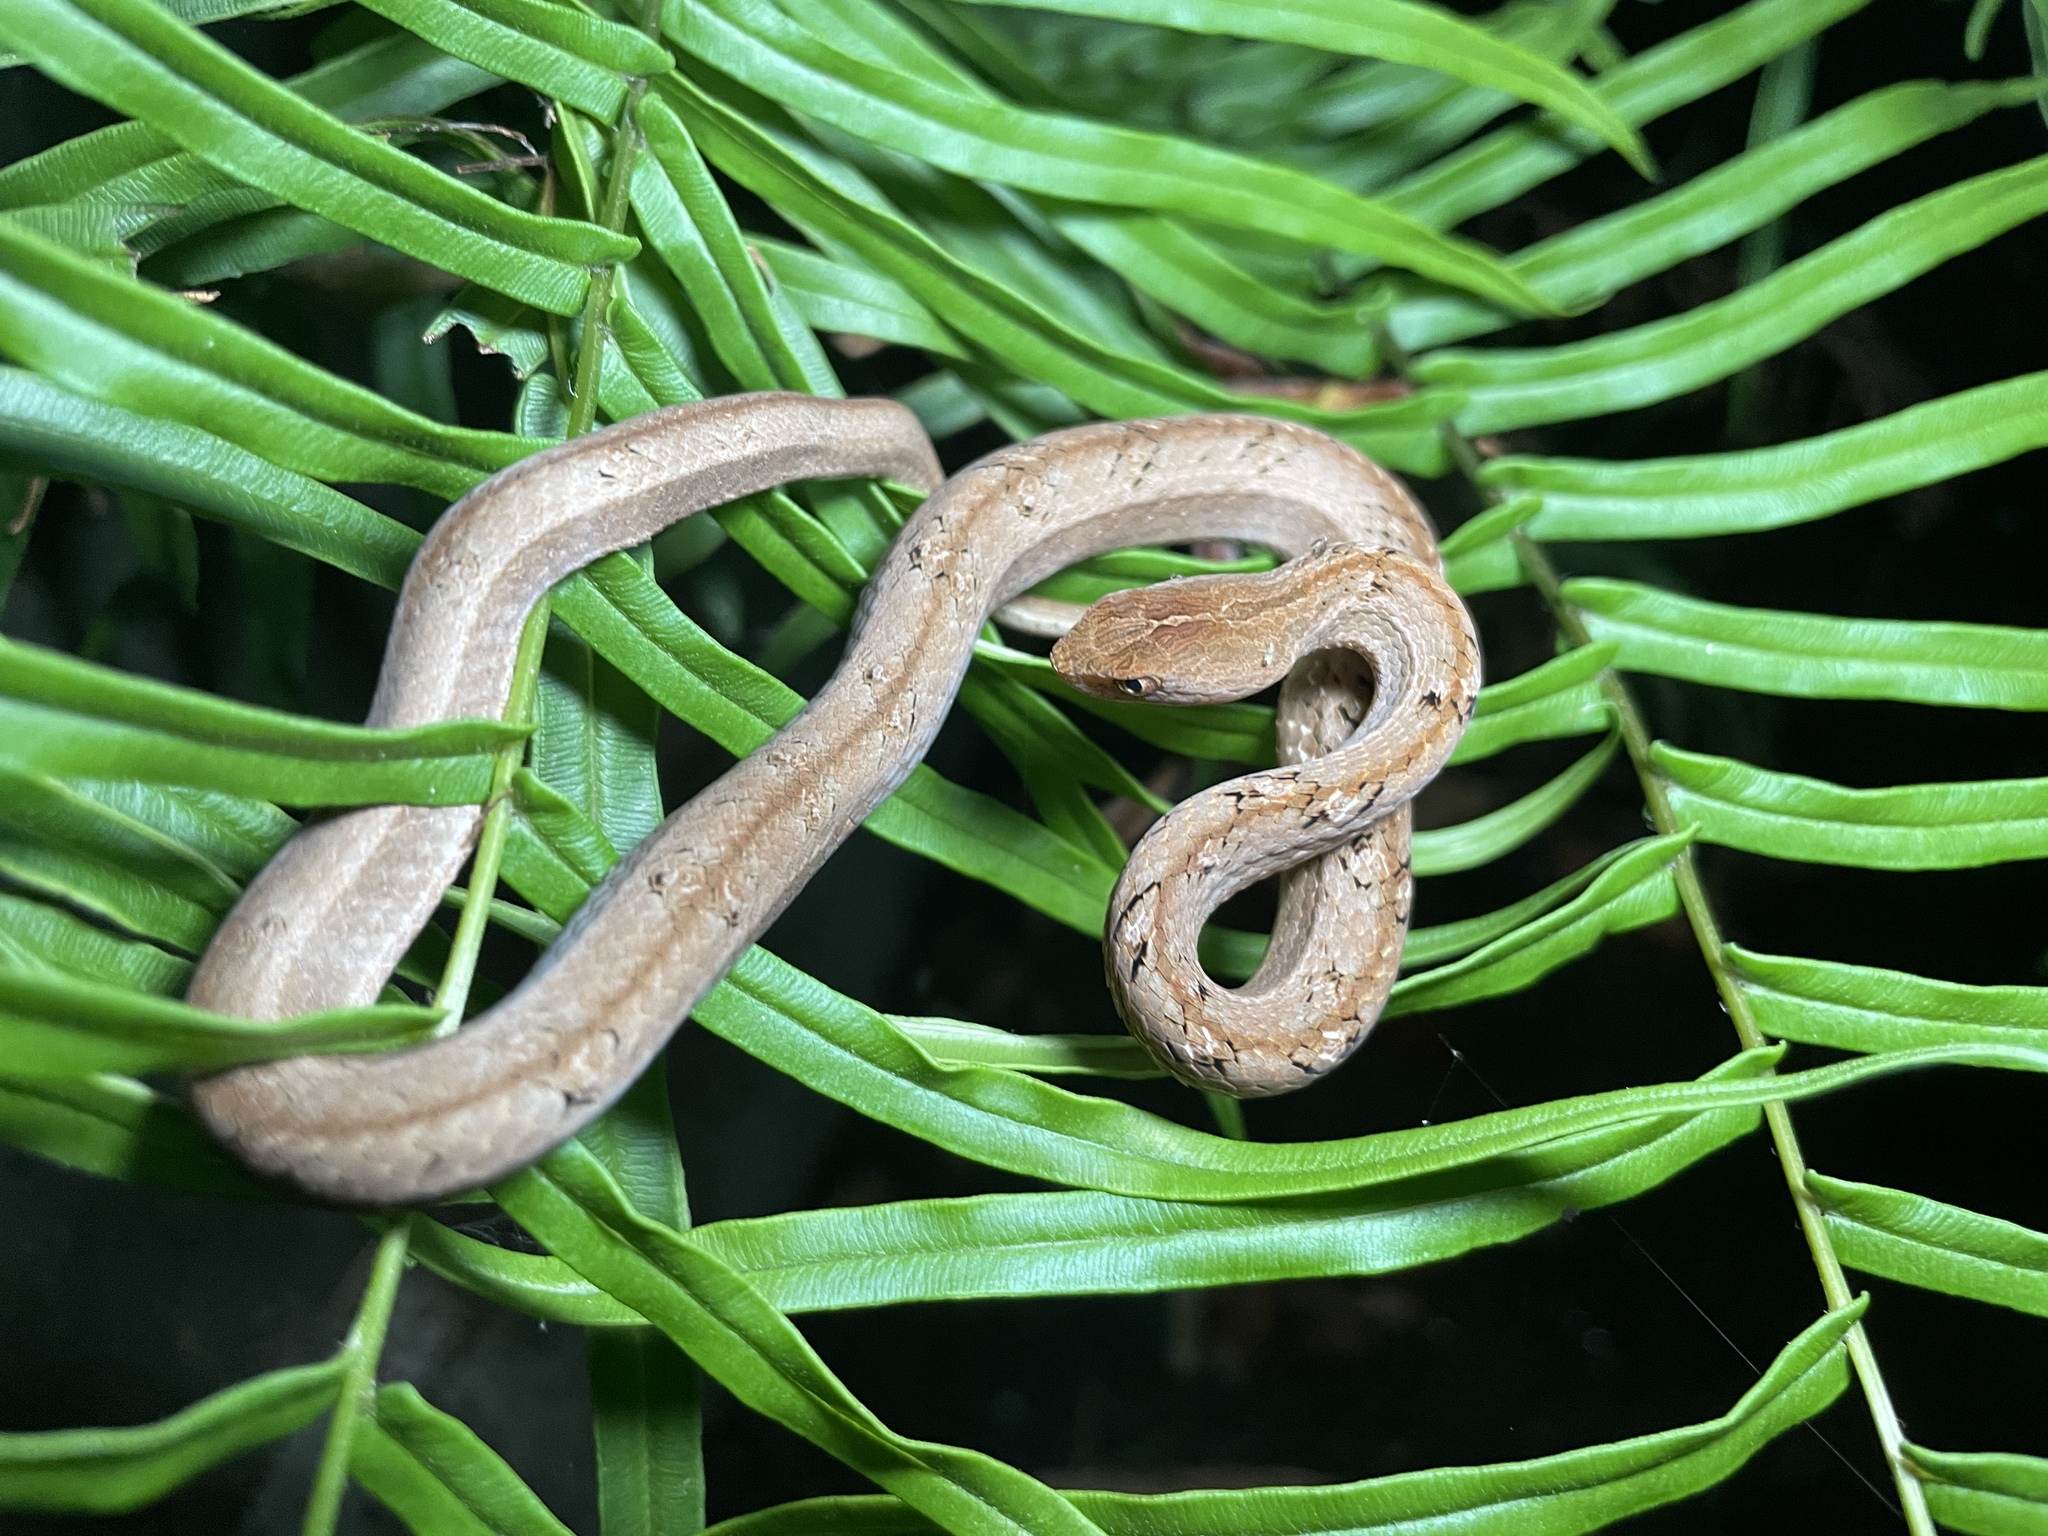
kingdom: Animalia
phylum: Chordata
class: Squamata
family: Pseudaspididae
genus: Psammodynastes
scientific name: Psammodynastes pulverulentus
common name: Common mock viper
